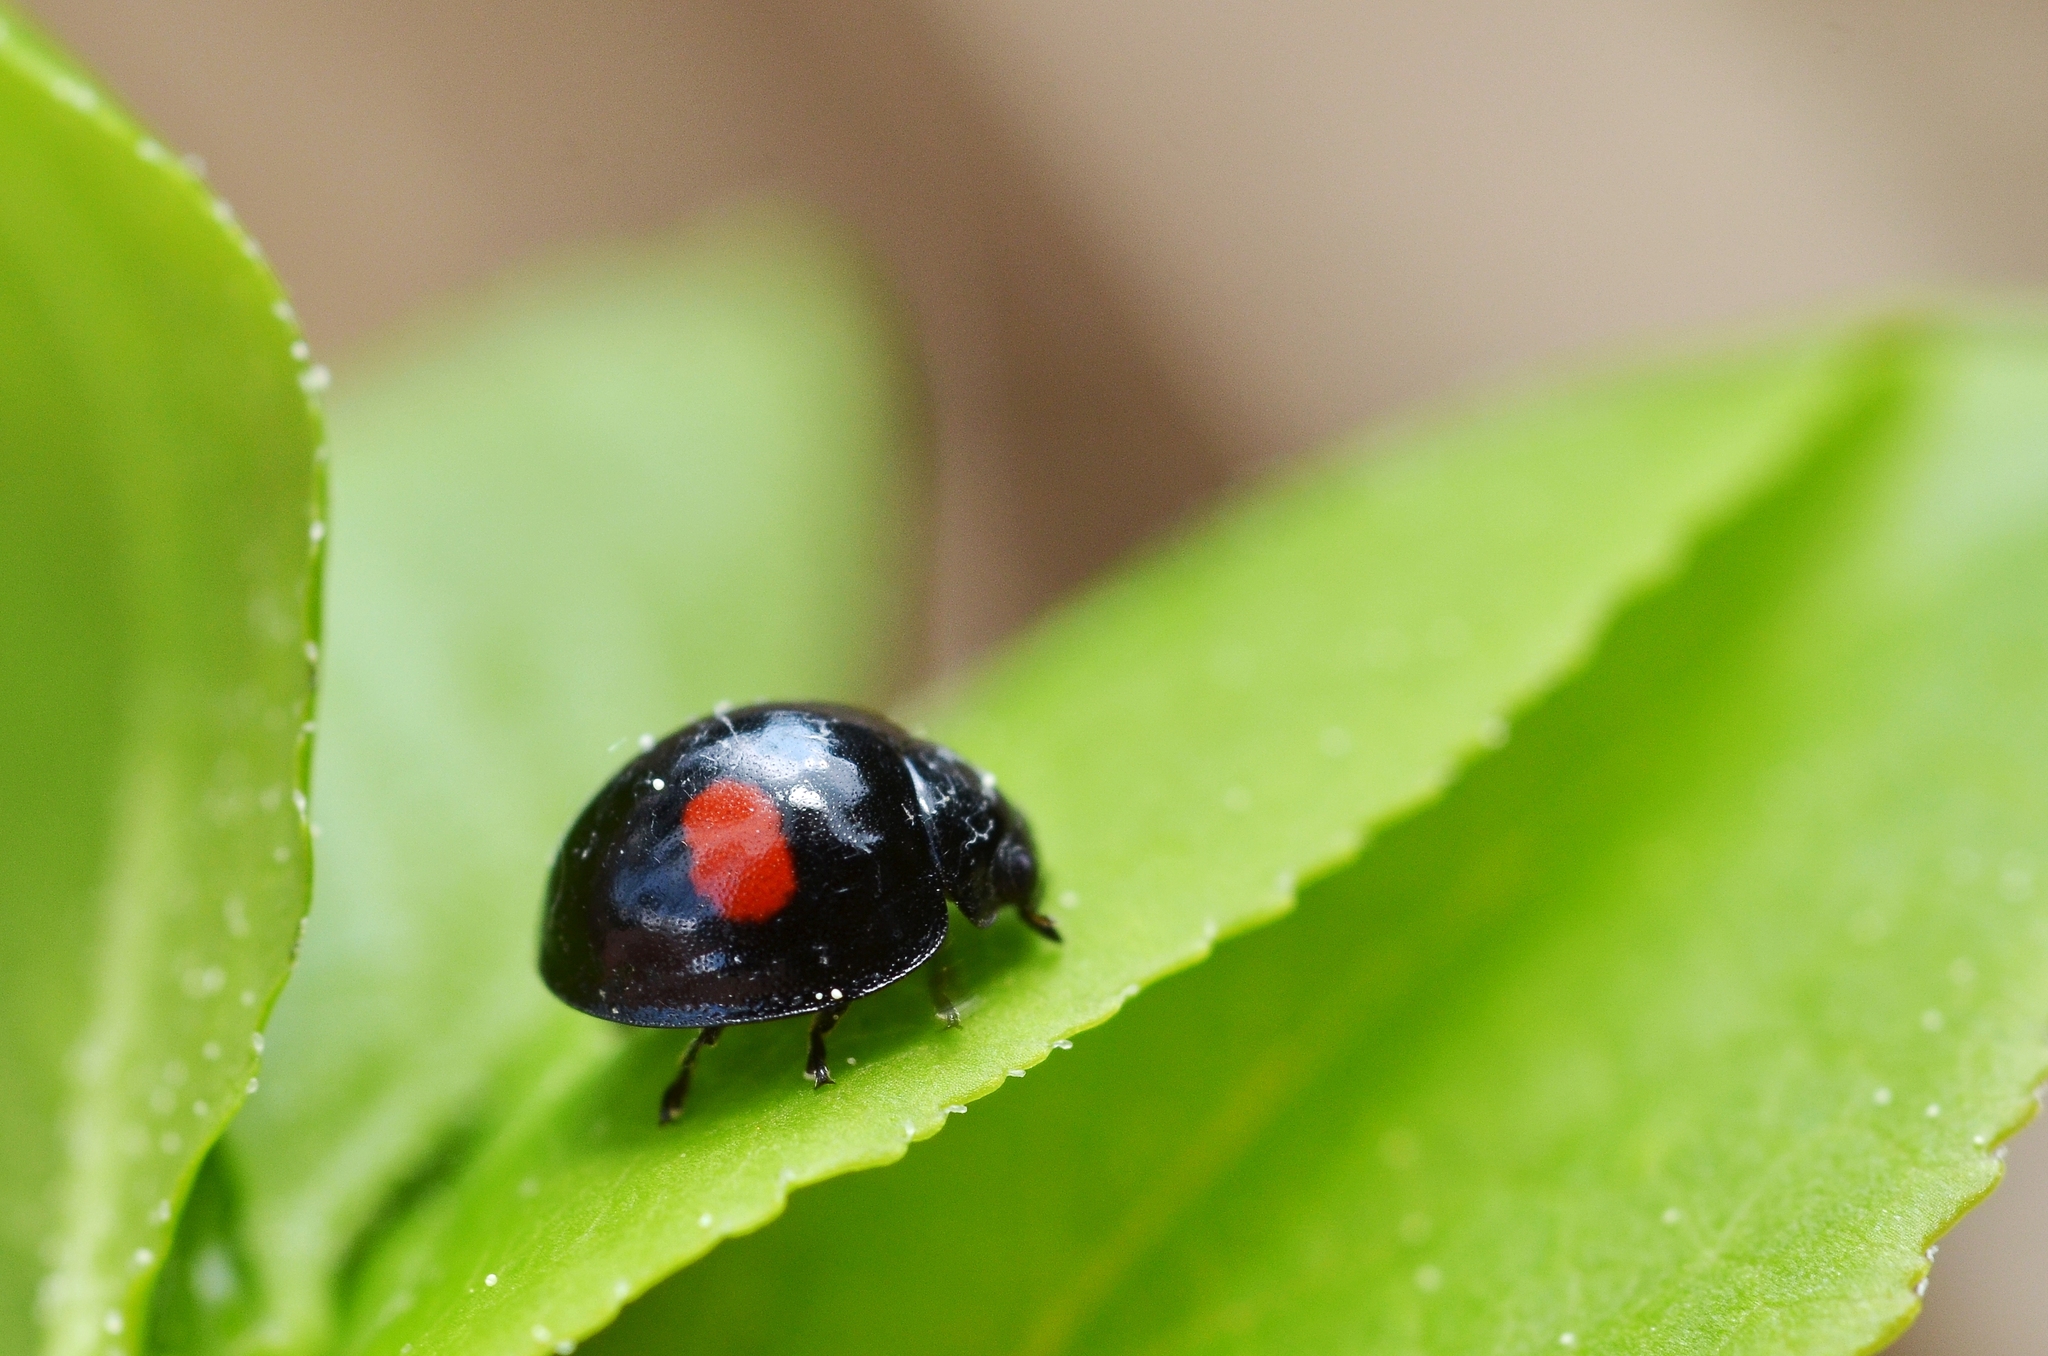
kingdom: Animalia
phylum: Arthropoda
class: Insecta
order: Coleoptera
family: Coccinellidae
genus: Chilocorus
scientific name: Chilocorus renipustulatus
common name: Kidney-spot ladybird
